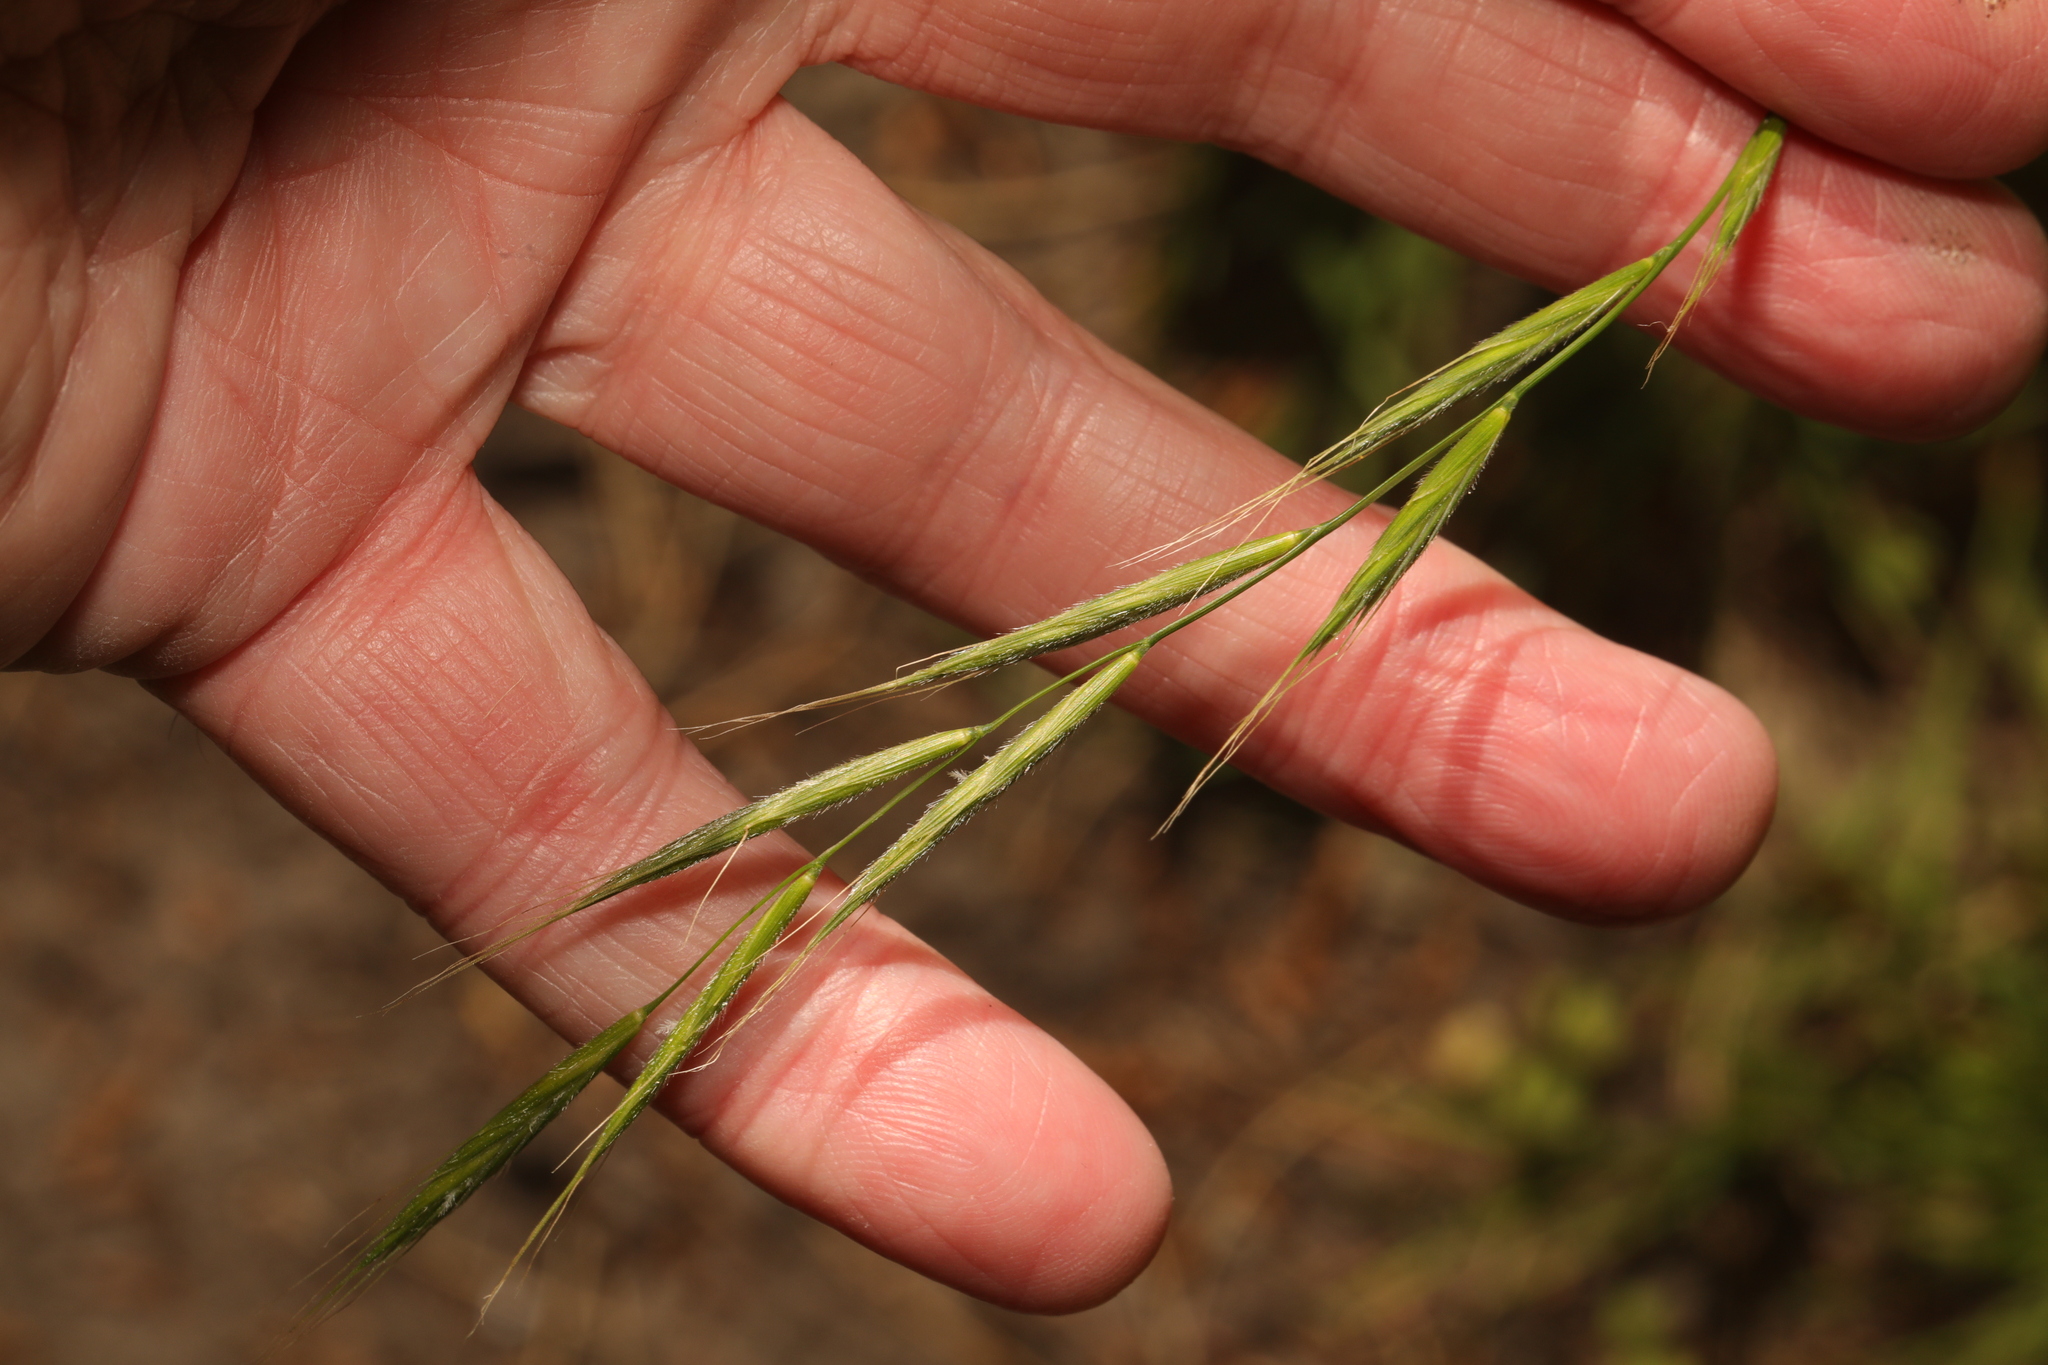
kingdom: Plantae
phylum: Tracheophyta
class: Liliopsida
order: Poales
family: Poaceae
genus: Brachypodium
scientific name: Brachypodium sylvaticum
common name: False-brome
